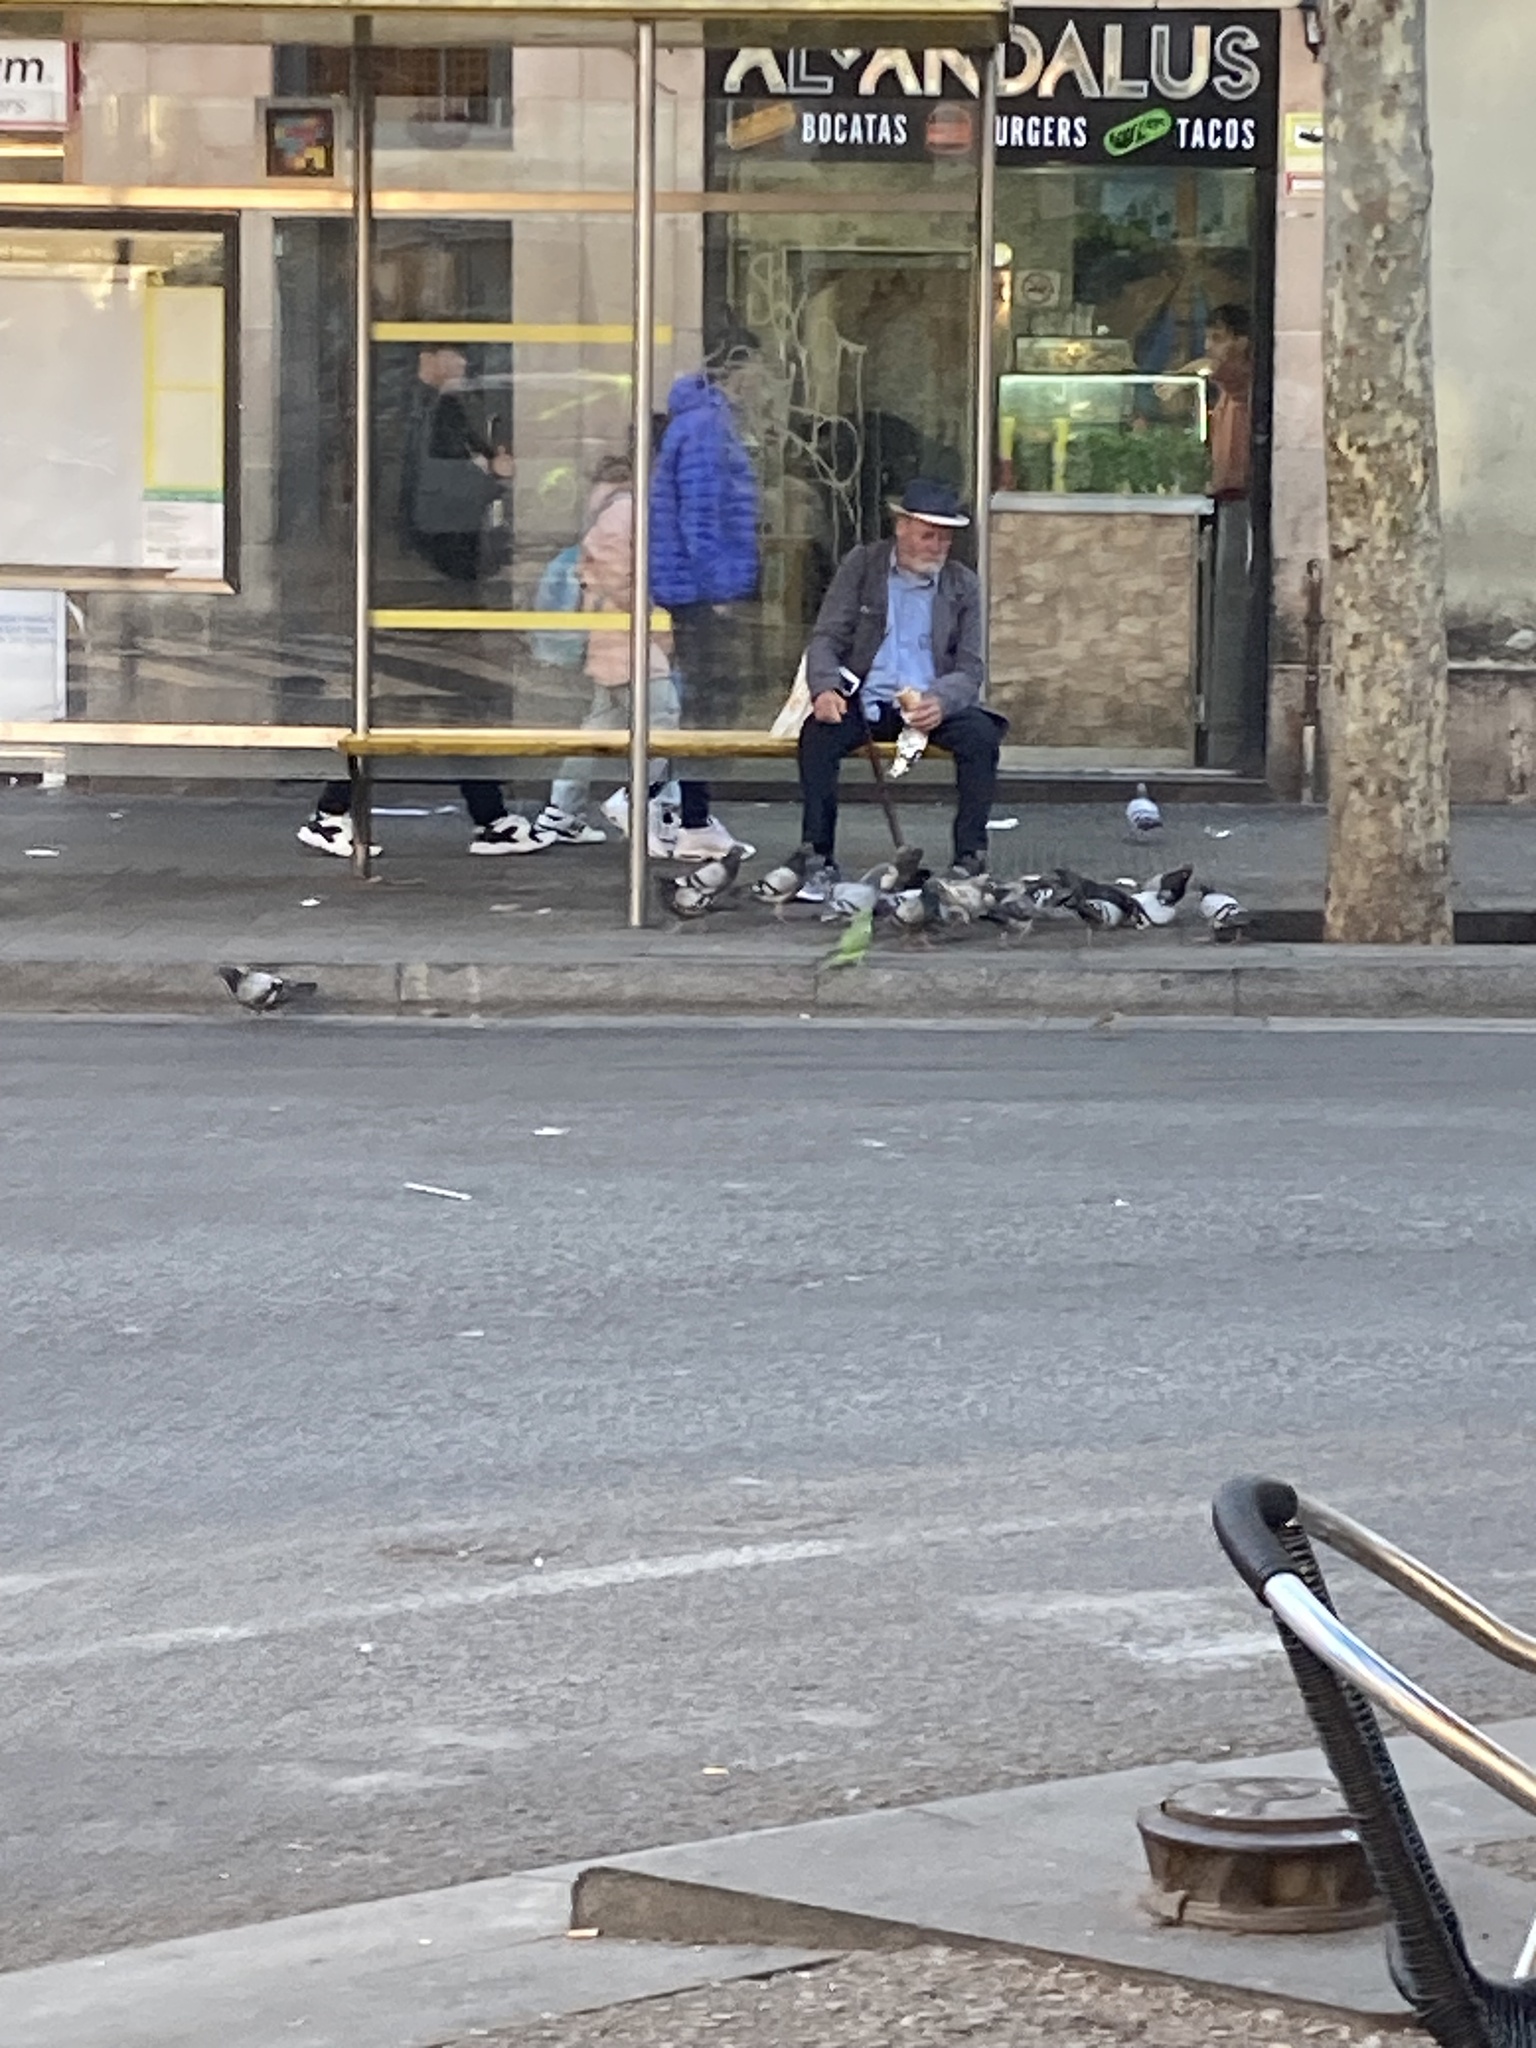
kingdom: Animalia
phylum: Chordata
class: Aves
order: Psittaciformes
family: Psittacidae
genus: Myiopsitta
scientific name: Myiopsitta monachus
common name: Monk parakeet
